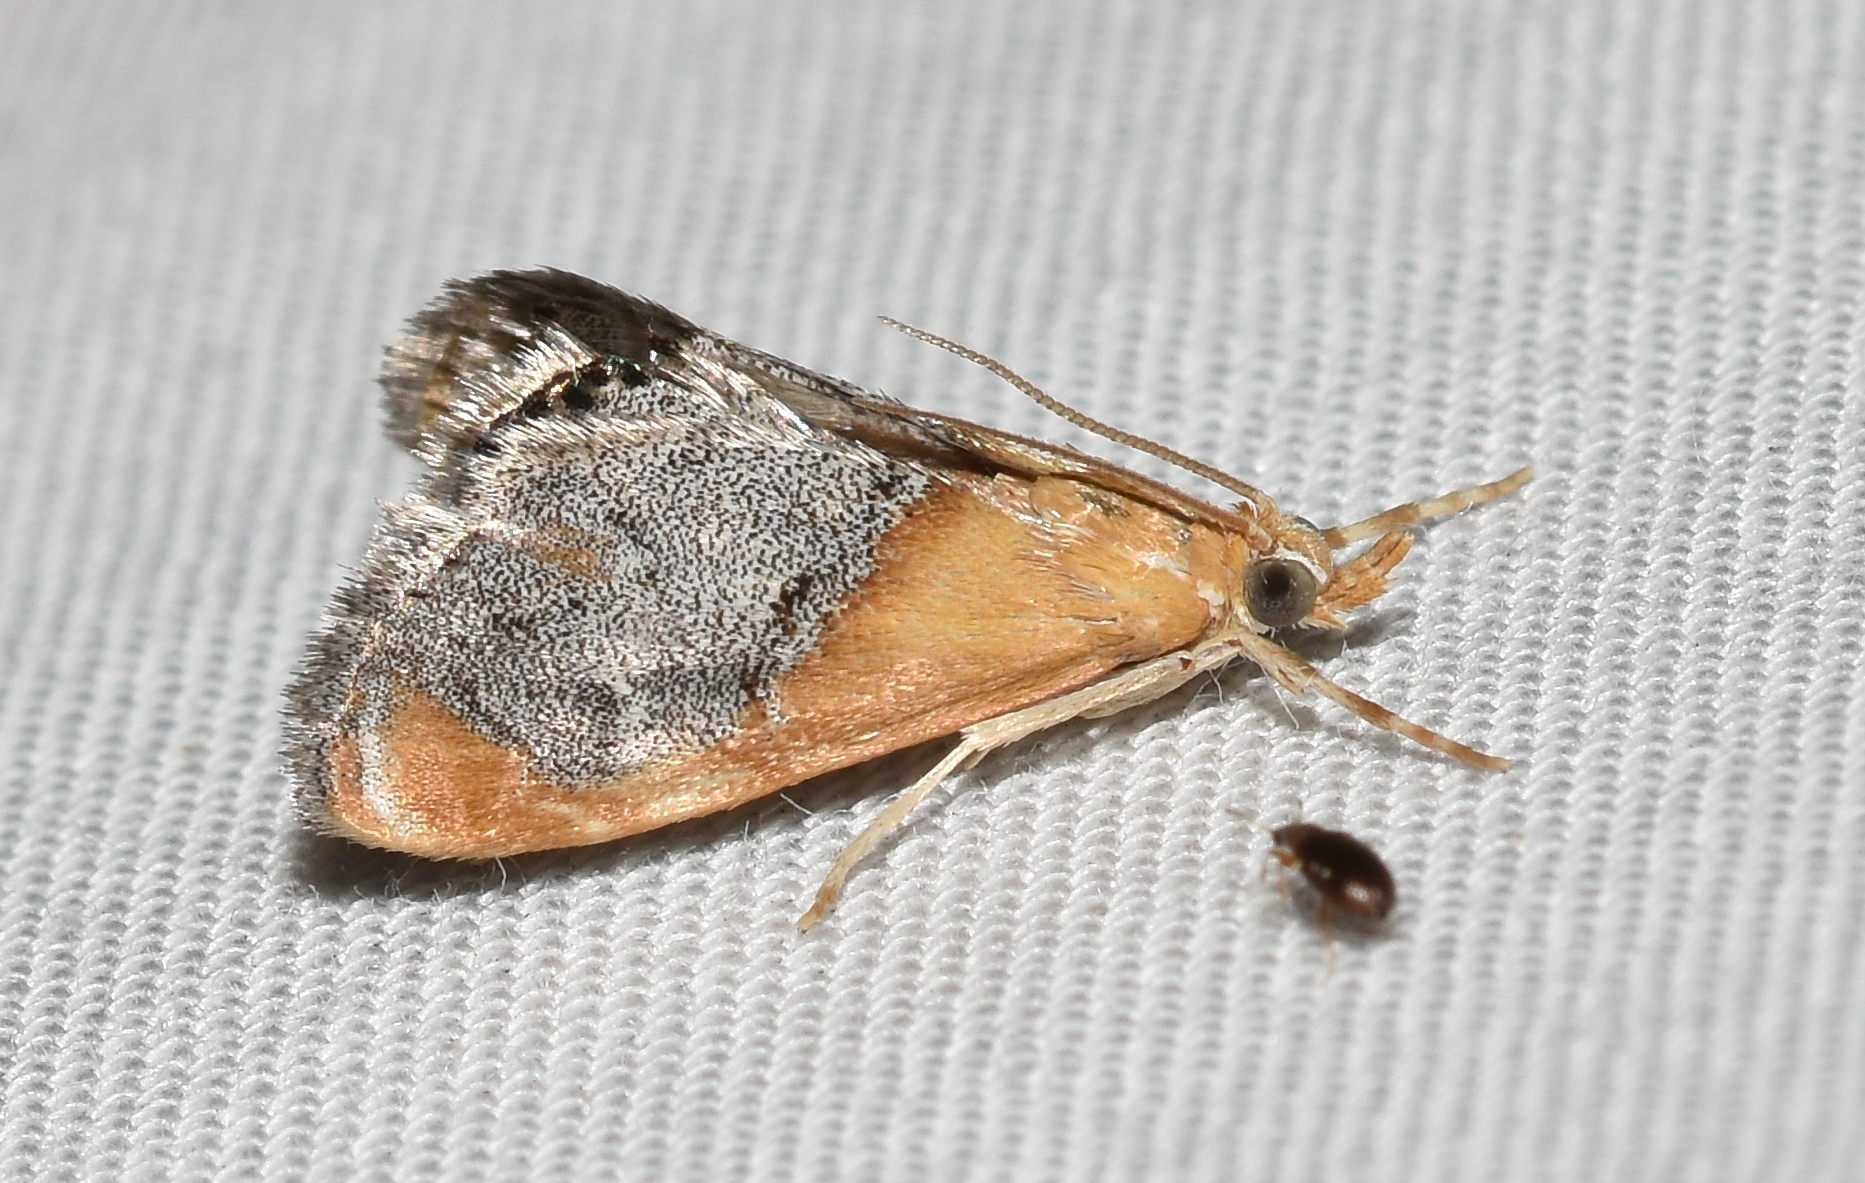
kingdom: Animalia
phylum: Arthropoda
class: Insecta
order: Lepidoptera
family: Crambidae
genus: Chalcoela
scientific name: Chalcoela iphitalis
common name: Sooty-winged chalcoela moth
